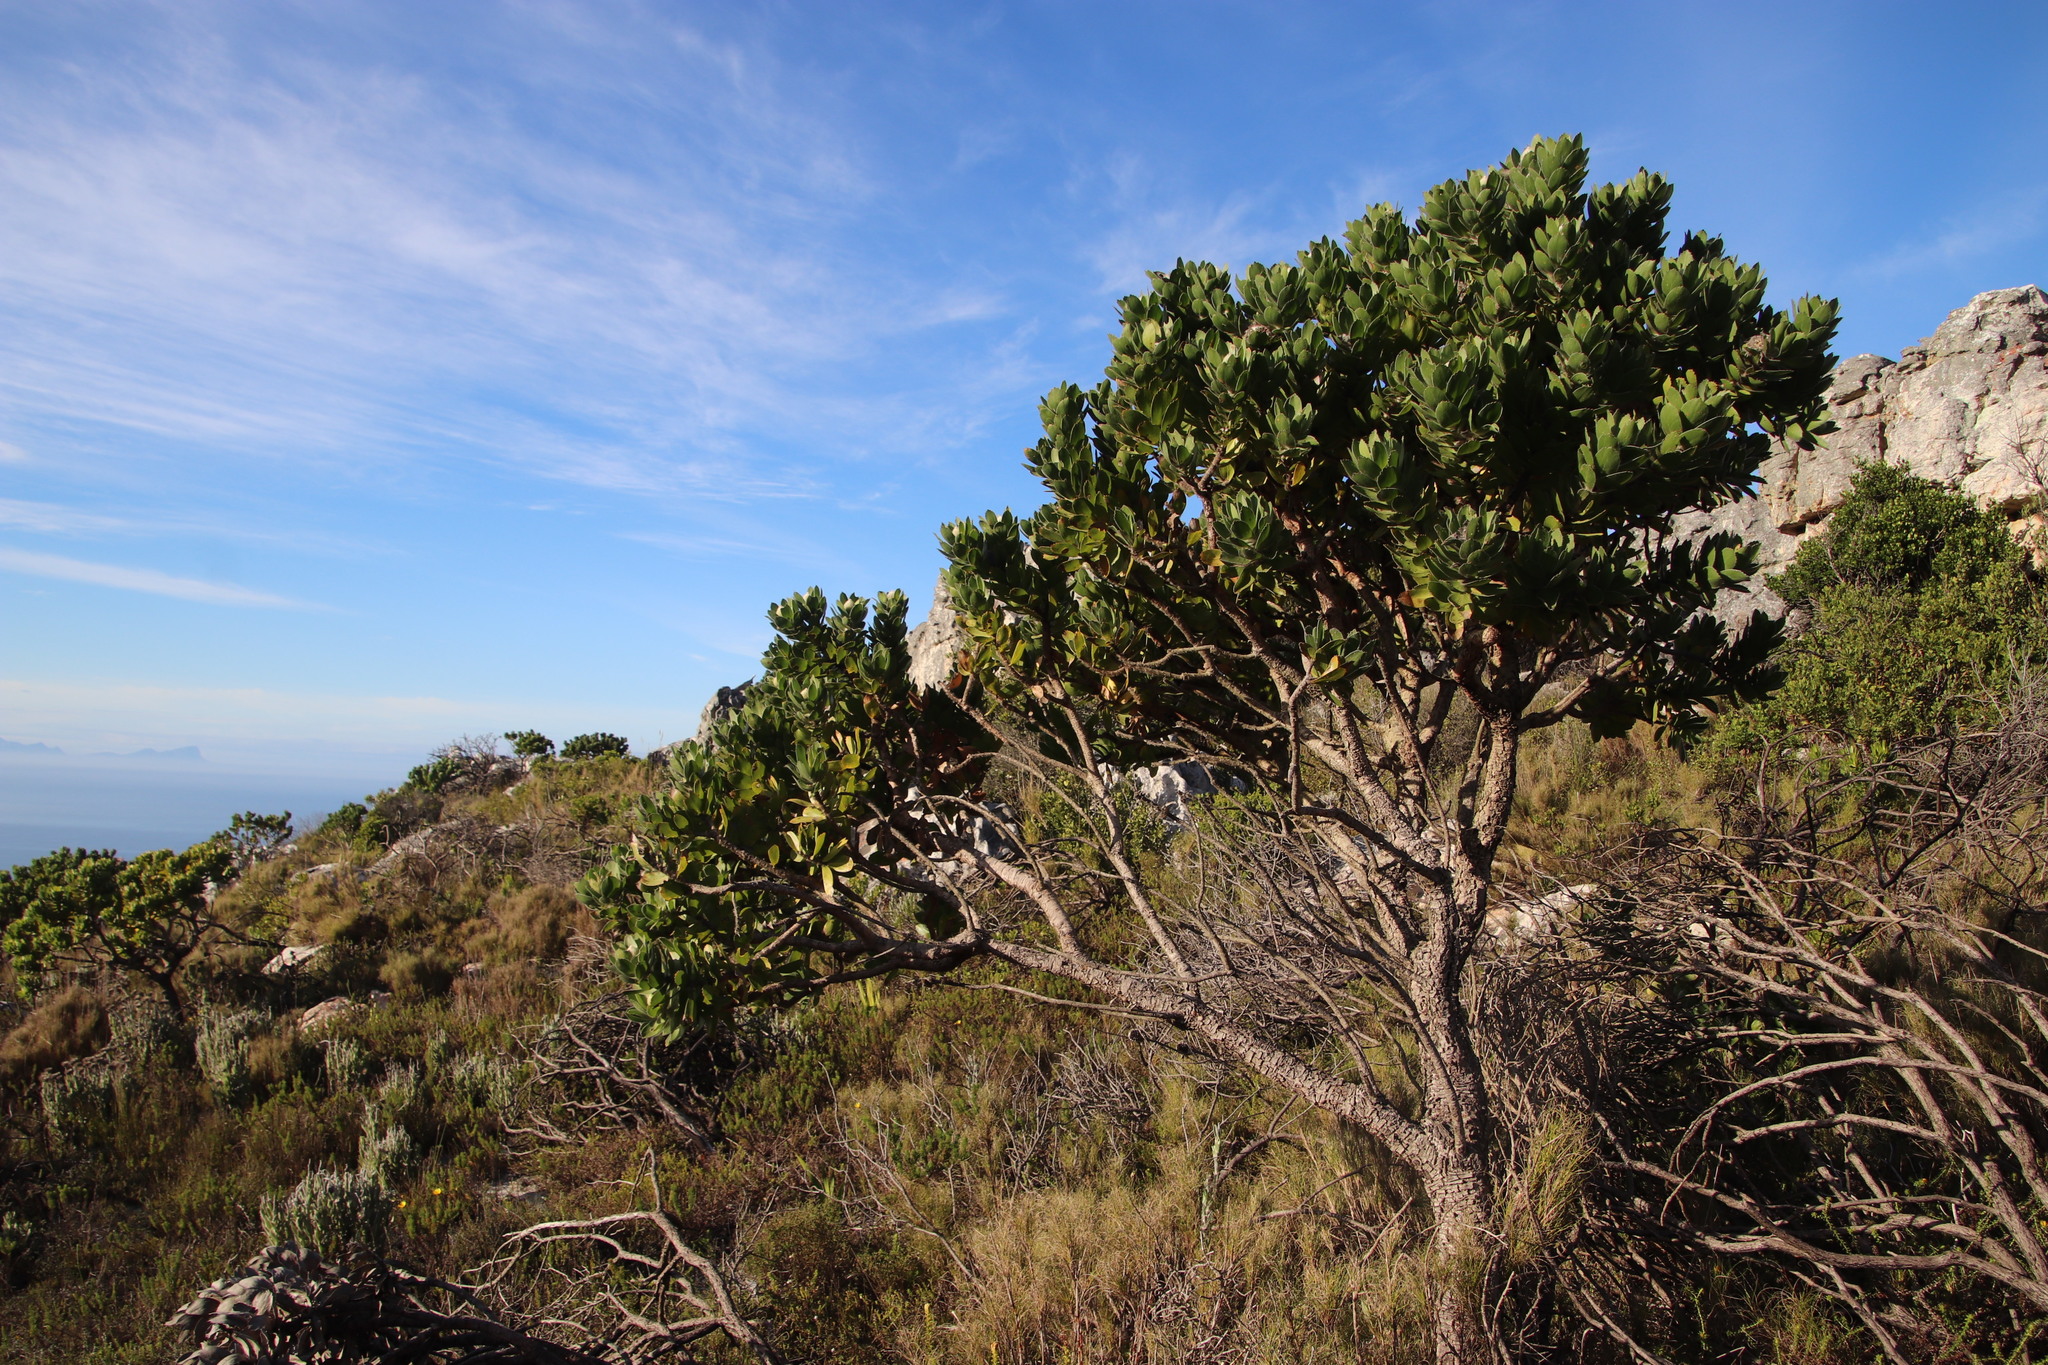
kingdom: Plantae
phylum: Tracheophyta
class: Magnoliopsida
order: Proteales
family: Proteaceae
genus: Leucospermum
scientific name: Leucospermum conocarpodendron
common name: Tree pincushion
